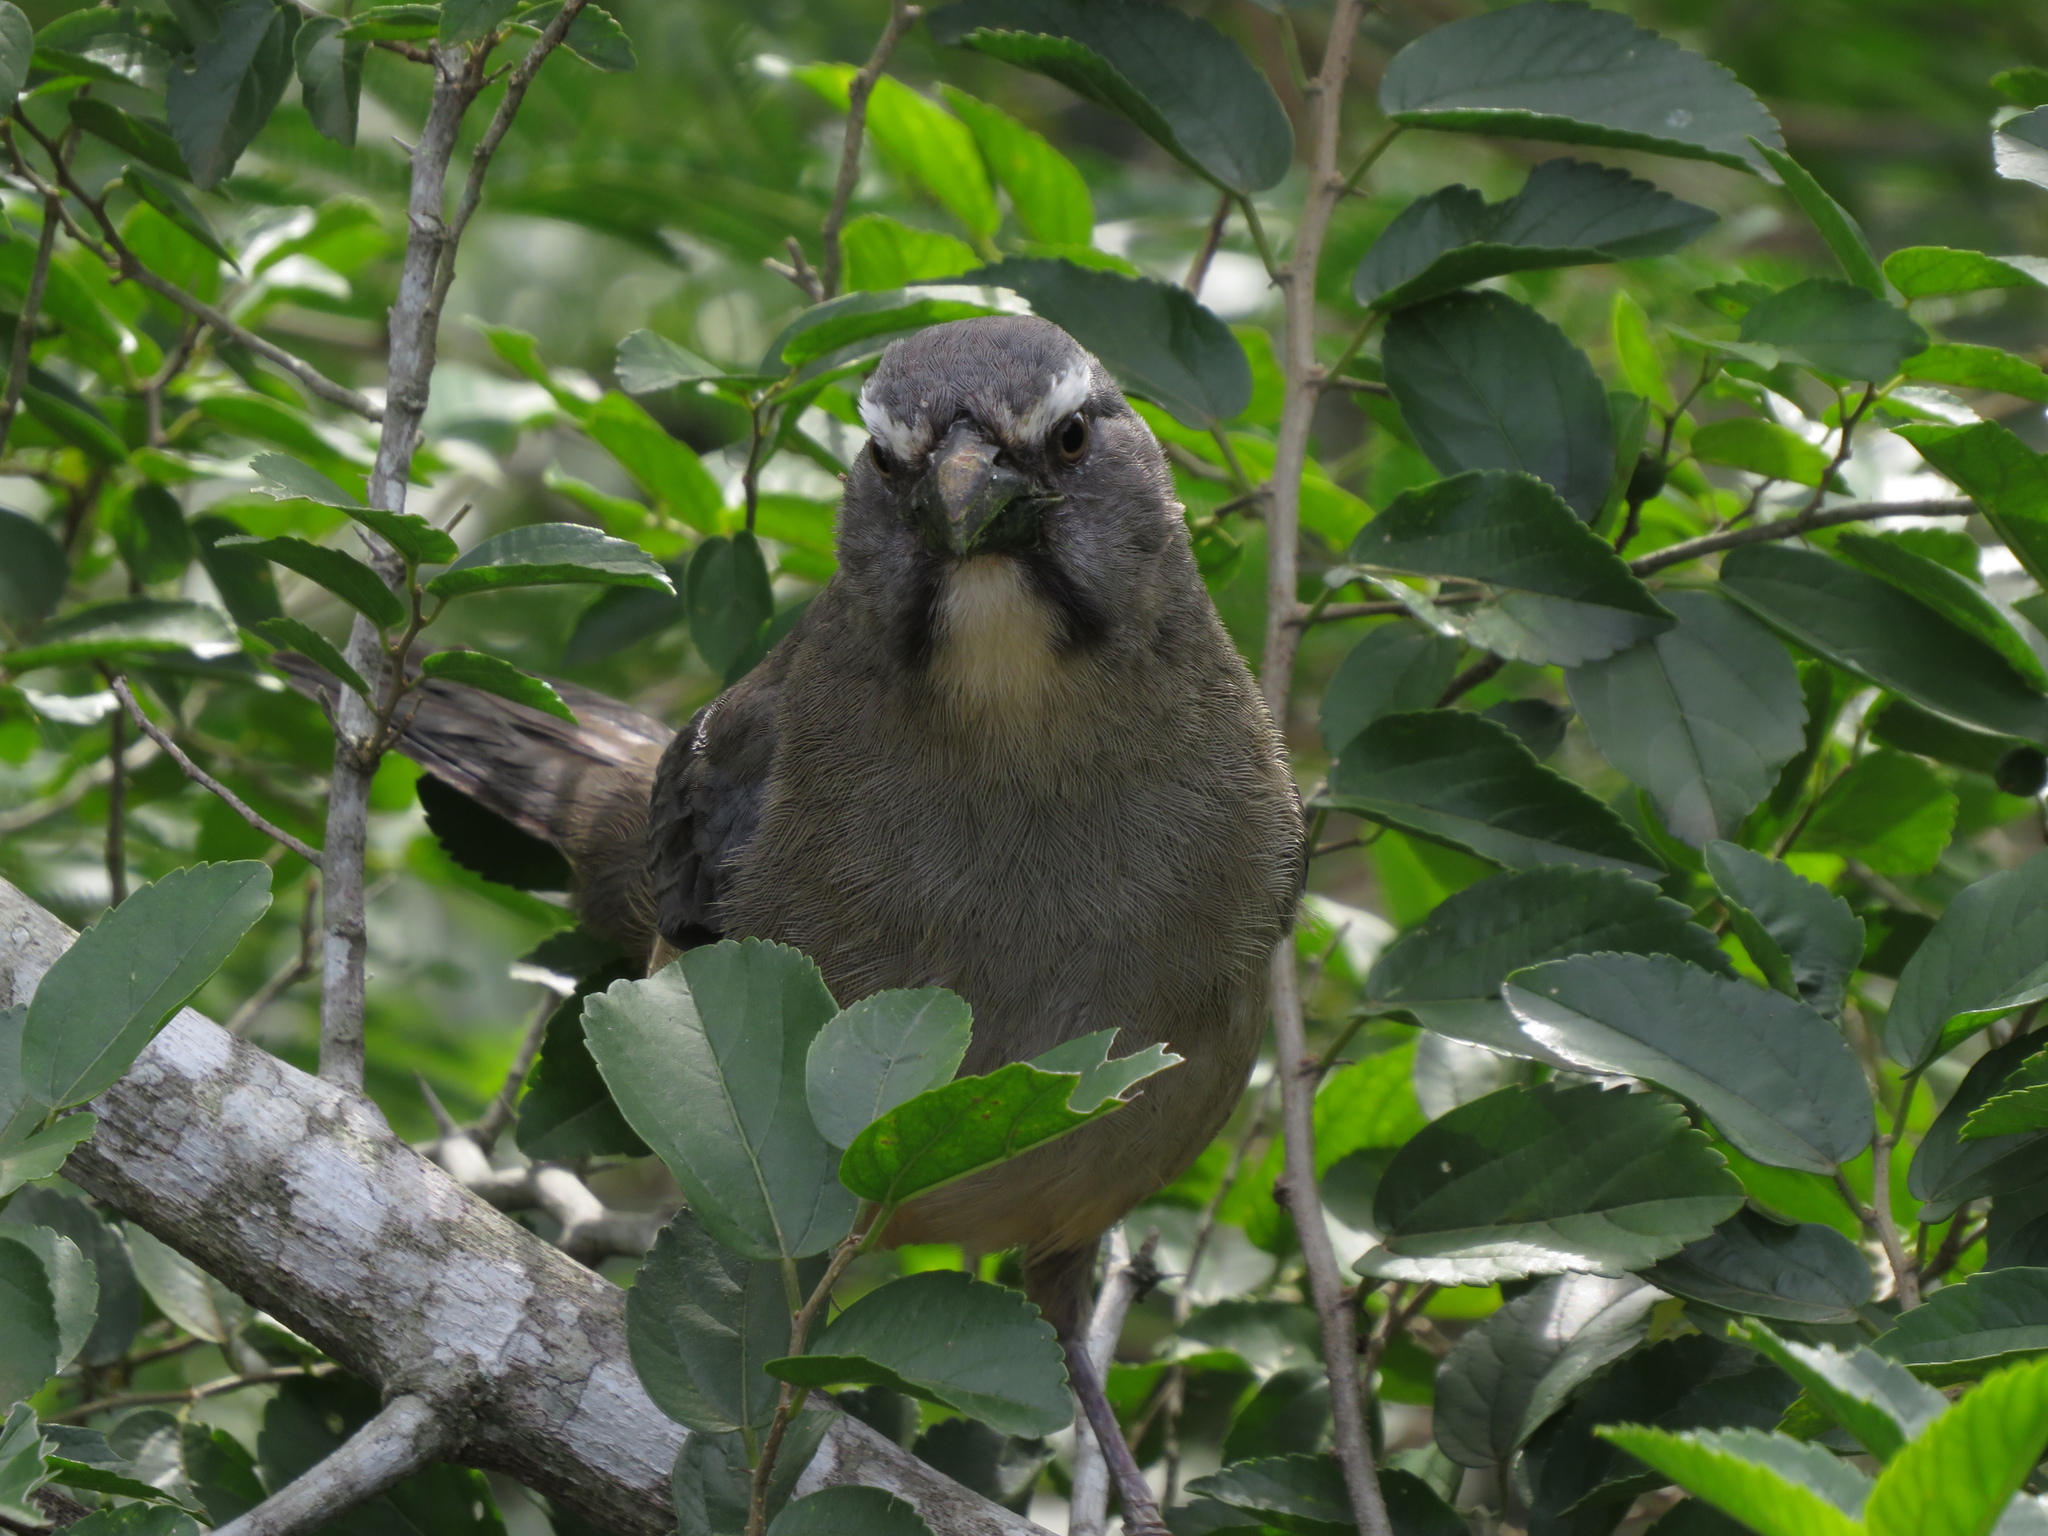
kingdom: Animalia
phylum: Chordata
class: Aves
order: Passeriformes
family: Thraupidae
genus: Saltator
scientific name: Saltator coerulescens
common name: Grayish saltator
